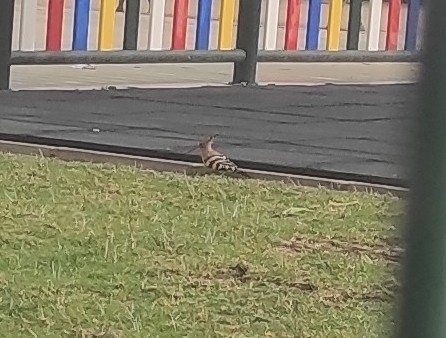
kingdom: Animalia
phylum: Chordata
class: Aves
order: Bucerotiformes
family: Upupidae
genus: Upupa
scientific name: Upupa epops
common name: Eurasian hoopoe
